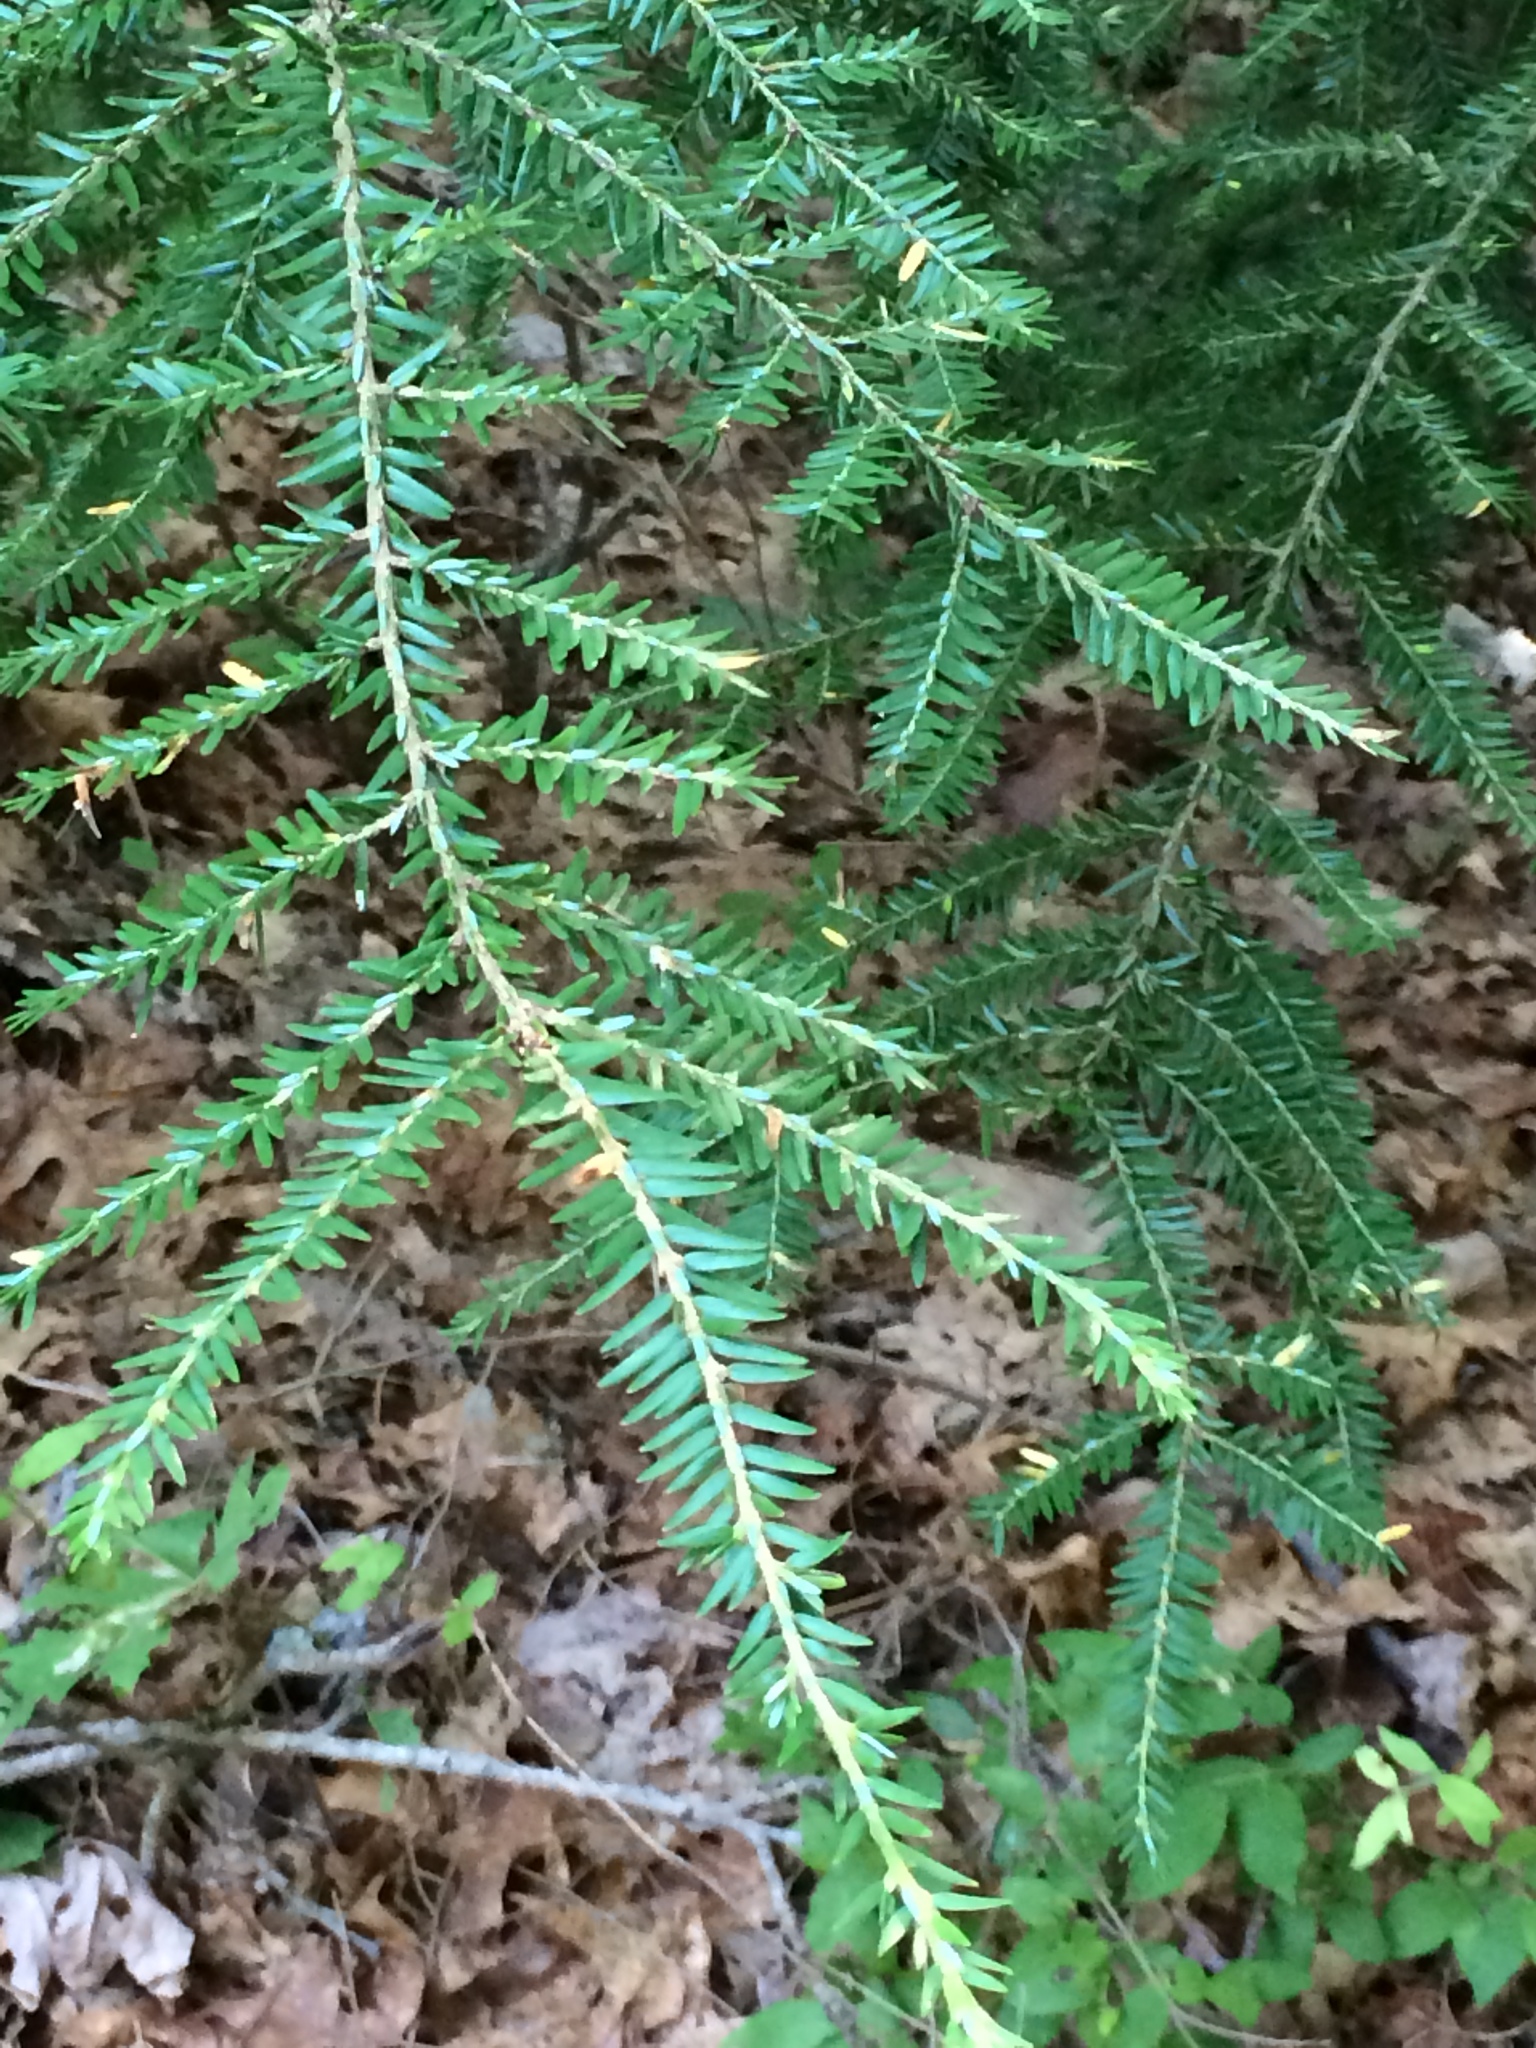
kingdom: Plantae
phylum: Tracheophyta
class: Pinopsida
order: Pinales
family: Pinaceae
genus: Tsuga
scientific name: Tsuga canadensis
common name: Eastern hemlock
